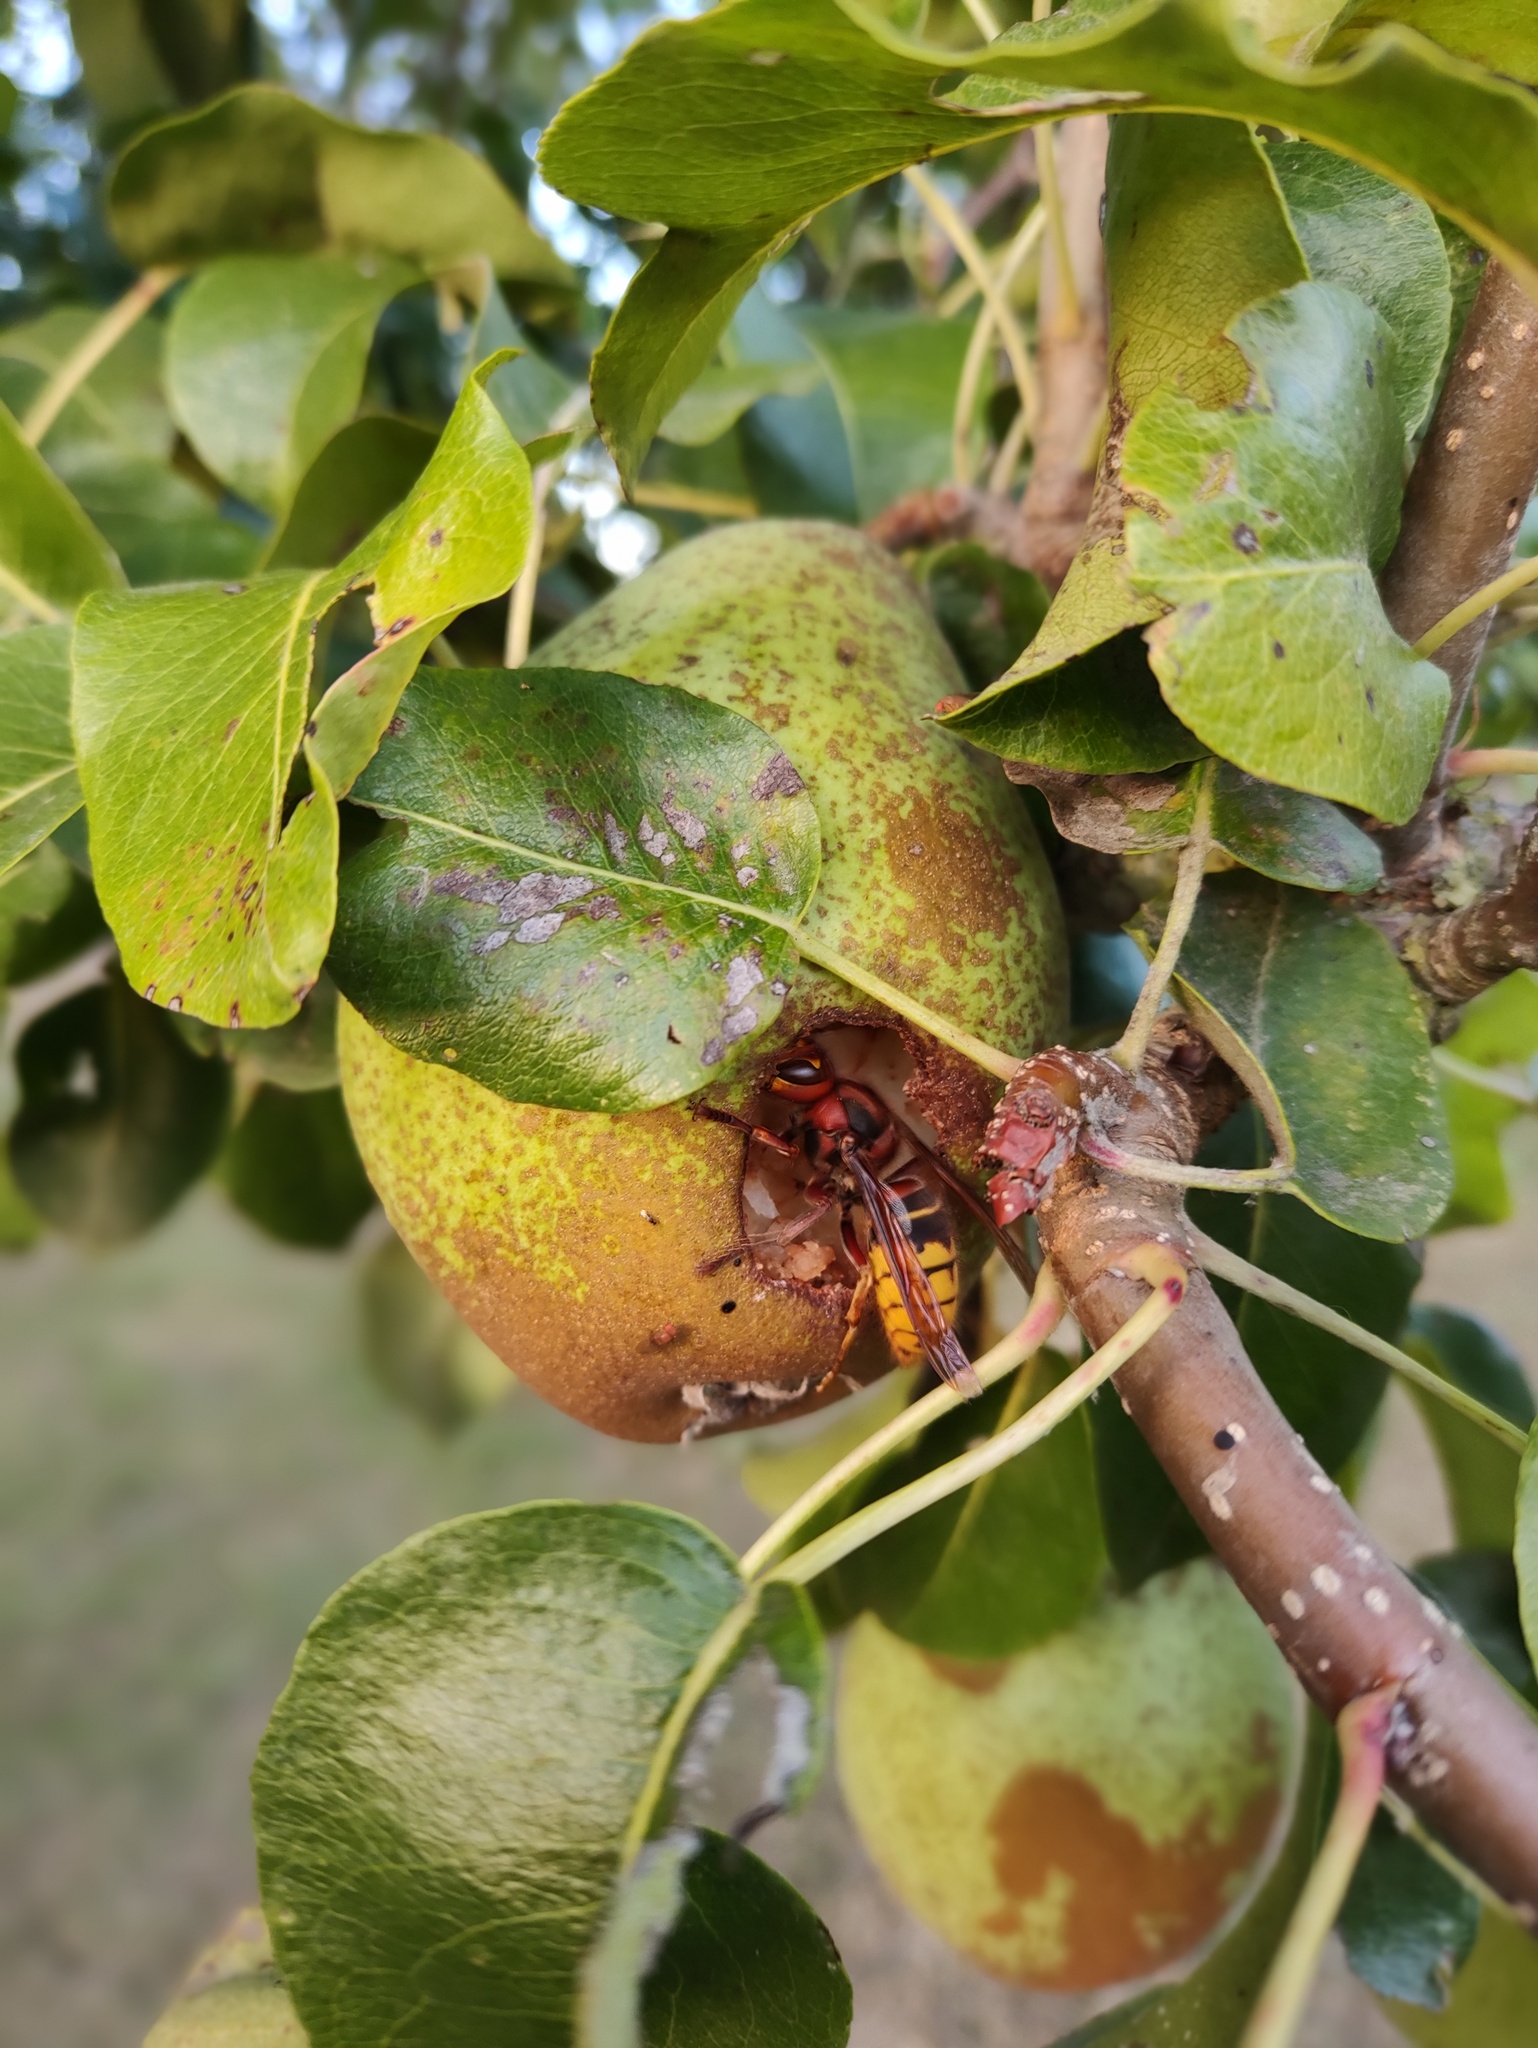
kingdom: Animalia
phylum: Arthropoda
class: Insecta
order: Hymenoptera
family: Vespidae
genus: Vespa
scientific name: Vespa crabro
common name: Hornet
